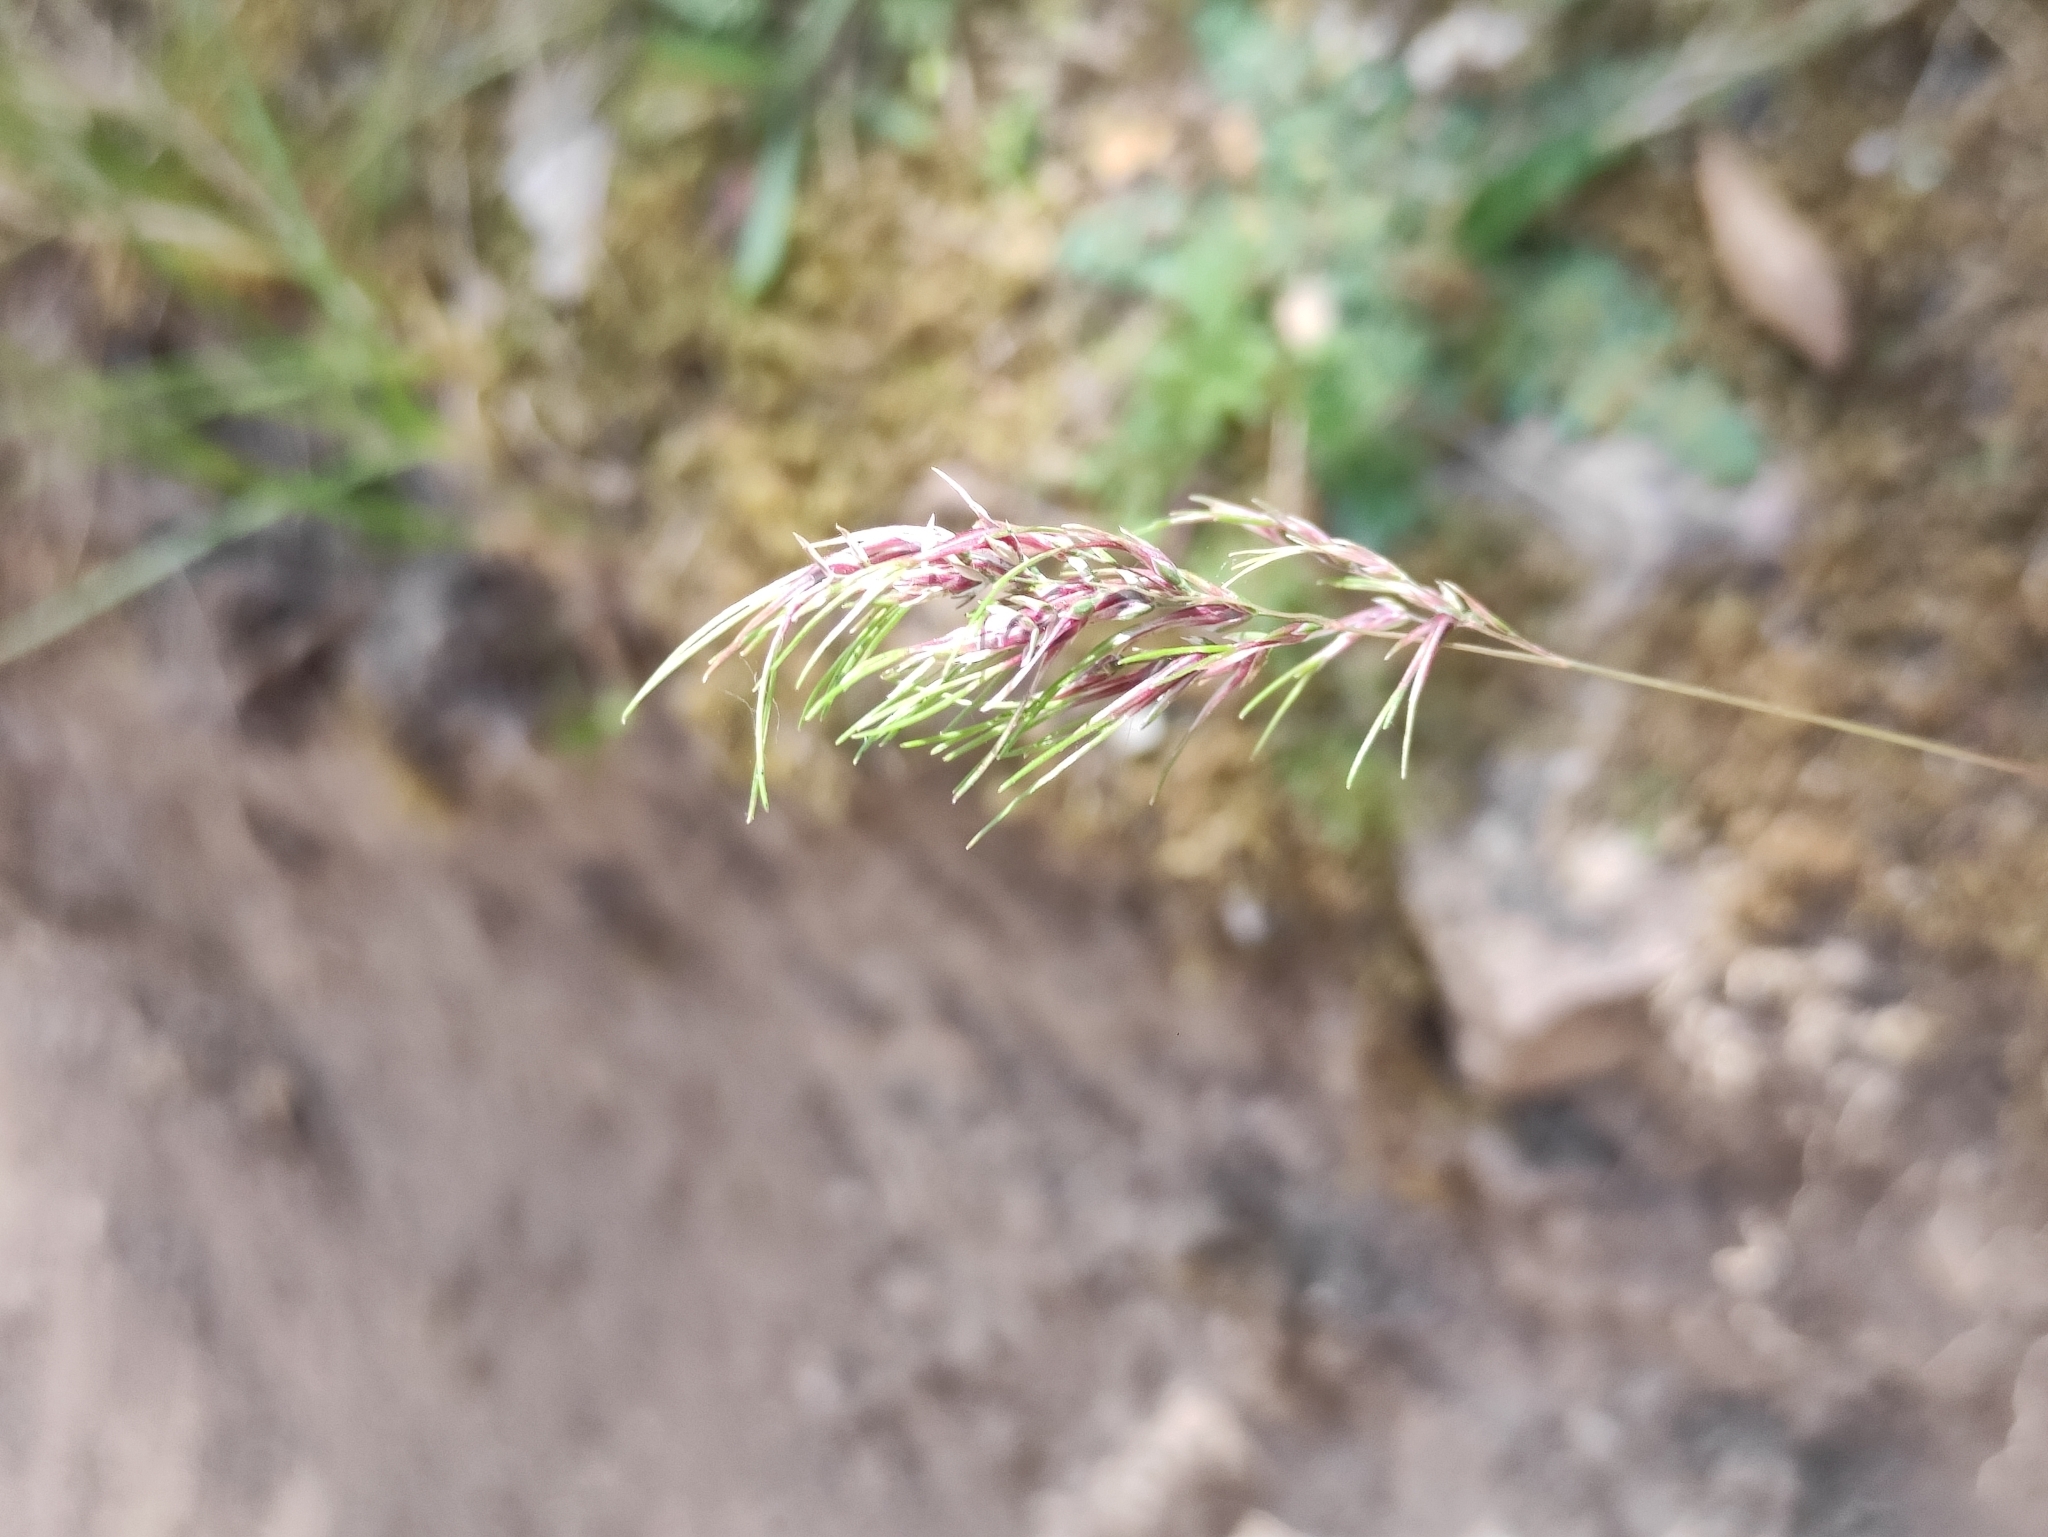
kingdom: Plantae
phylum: Tracheophyta
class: Liliopsida
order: Poales
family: Poaceae
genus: Poa
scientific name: Poa bulbosa
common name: Bulbous bluegrass
